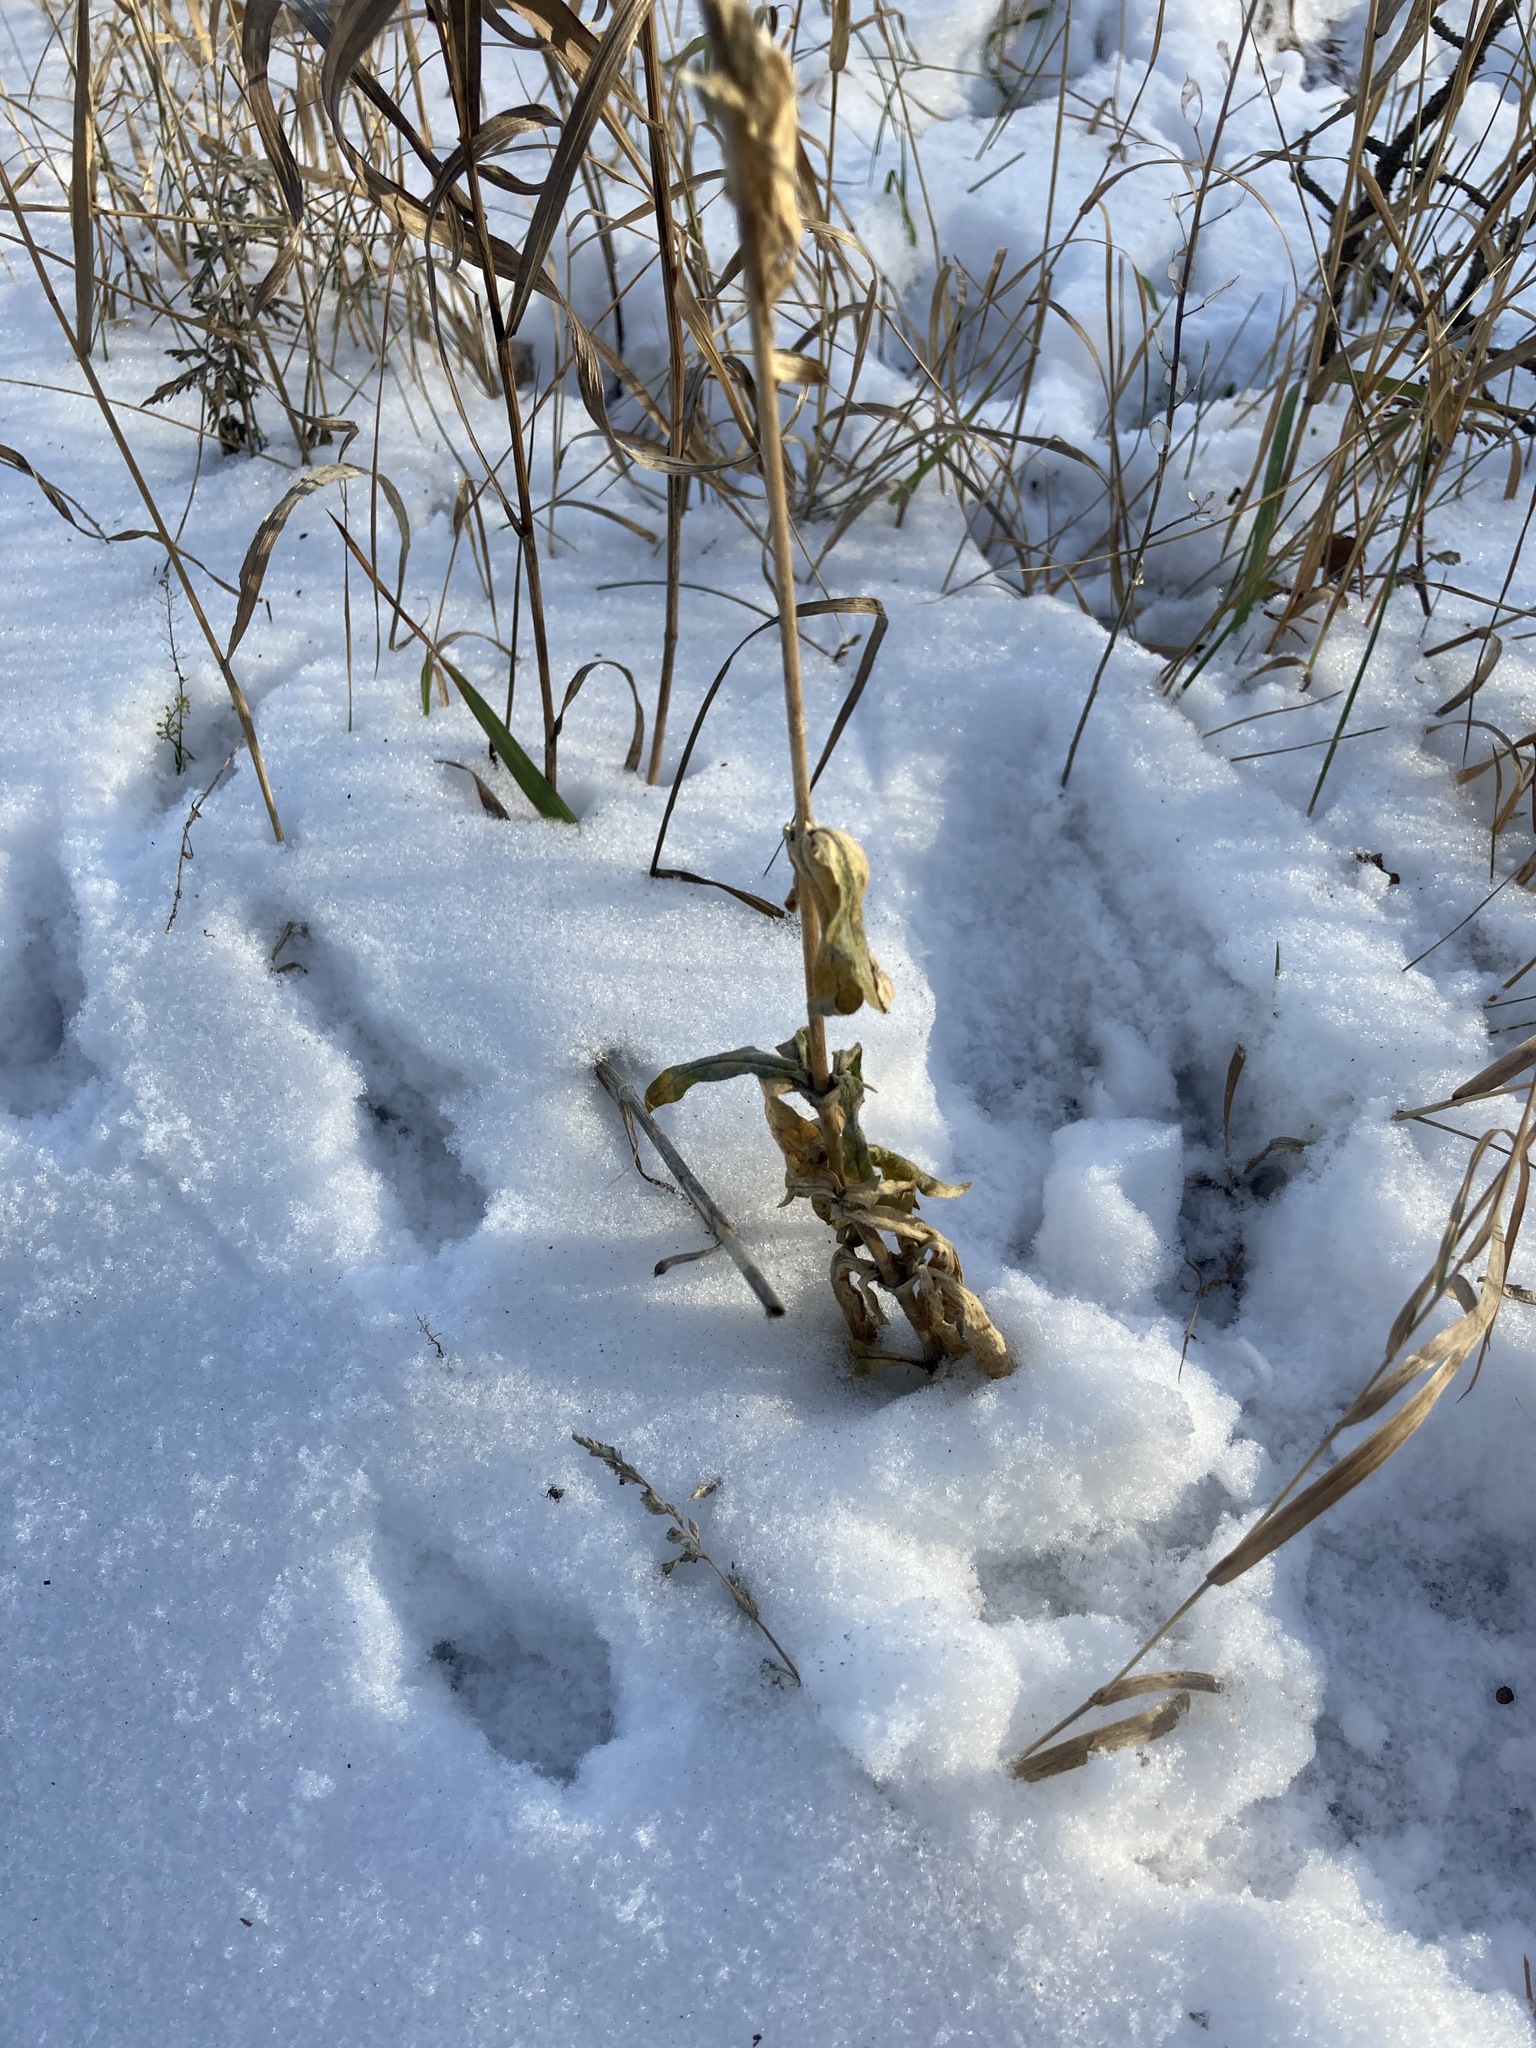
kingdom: Plantae
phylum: Tracheophyta
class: Magnoliopsida
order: Caryophyllales
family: Caryophyllaceae
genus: Silene
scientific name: Silene latifolia
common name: White campion
